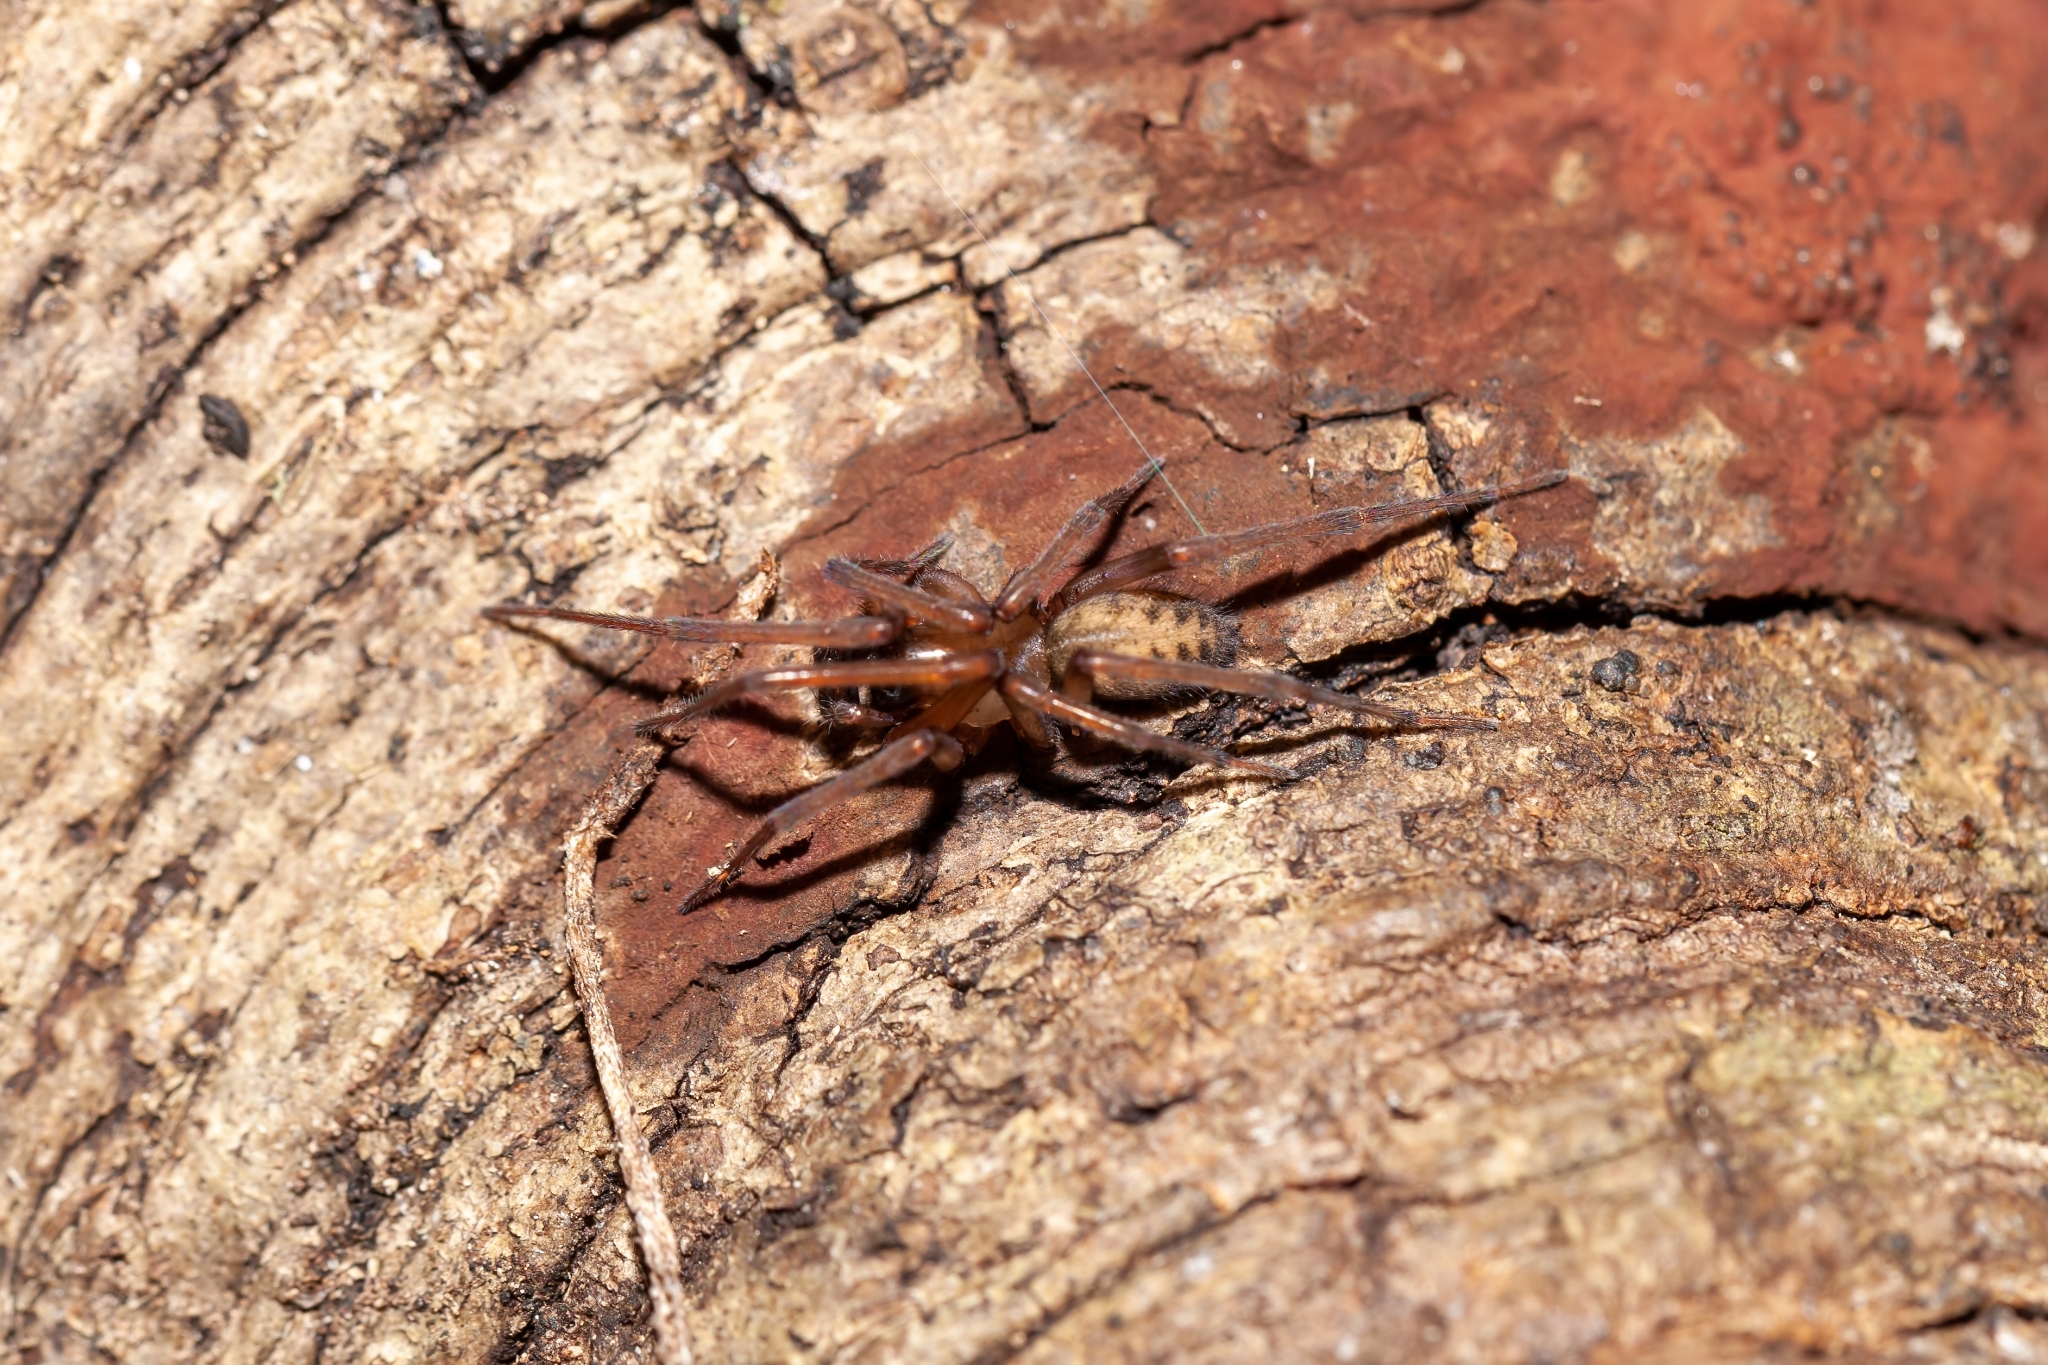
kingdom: Animalia
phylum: Arthropoda
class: Arachnida
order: Araneae
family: Desidae
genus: Metaltella
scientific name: Metaltella simoni
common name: Cribellate spider
